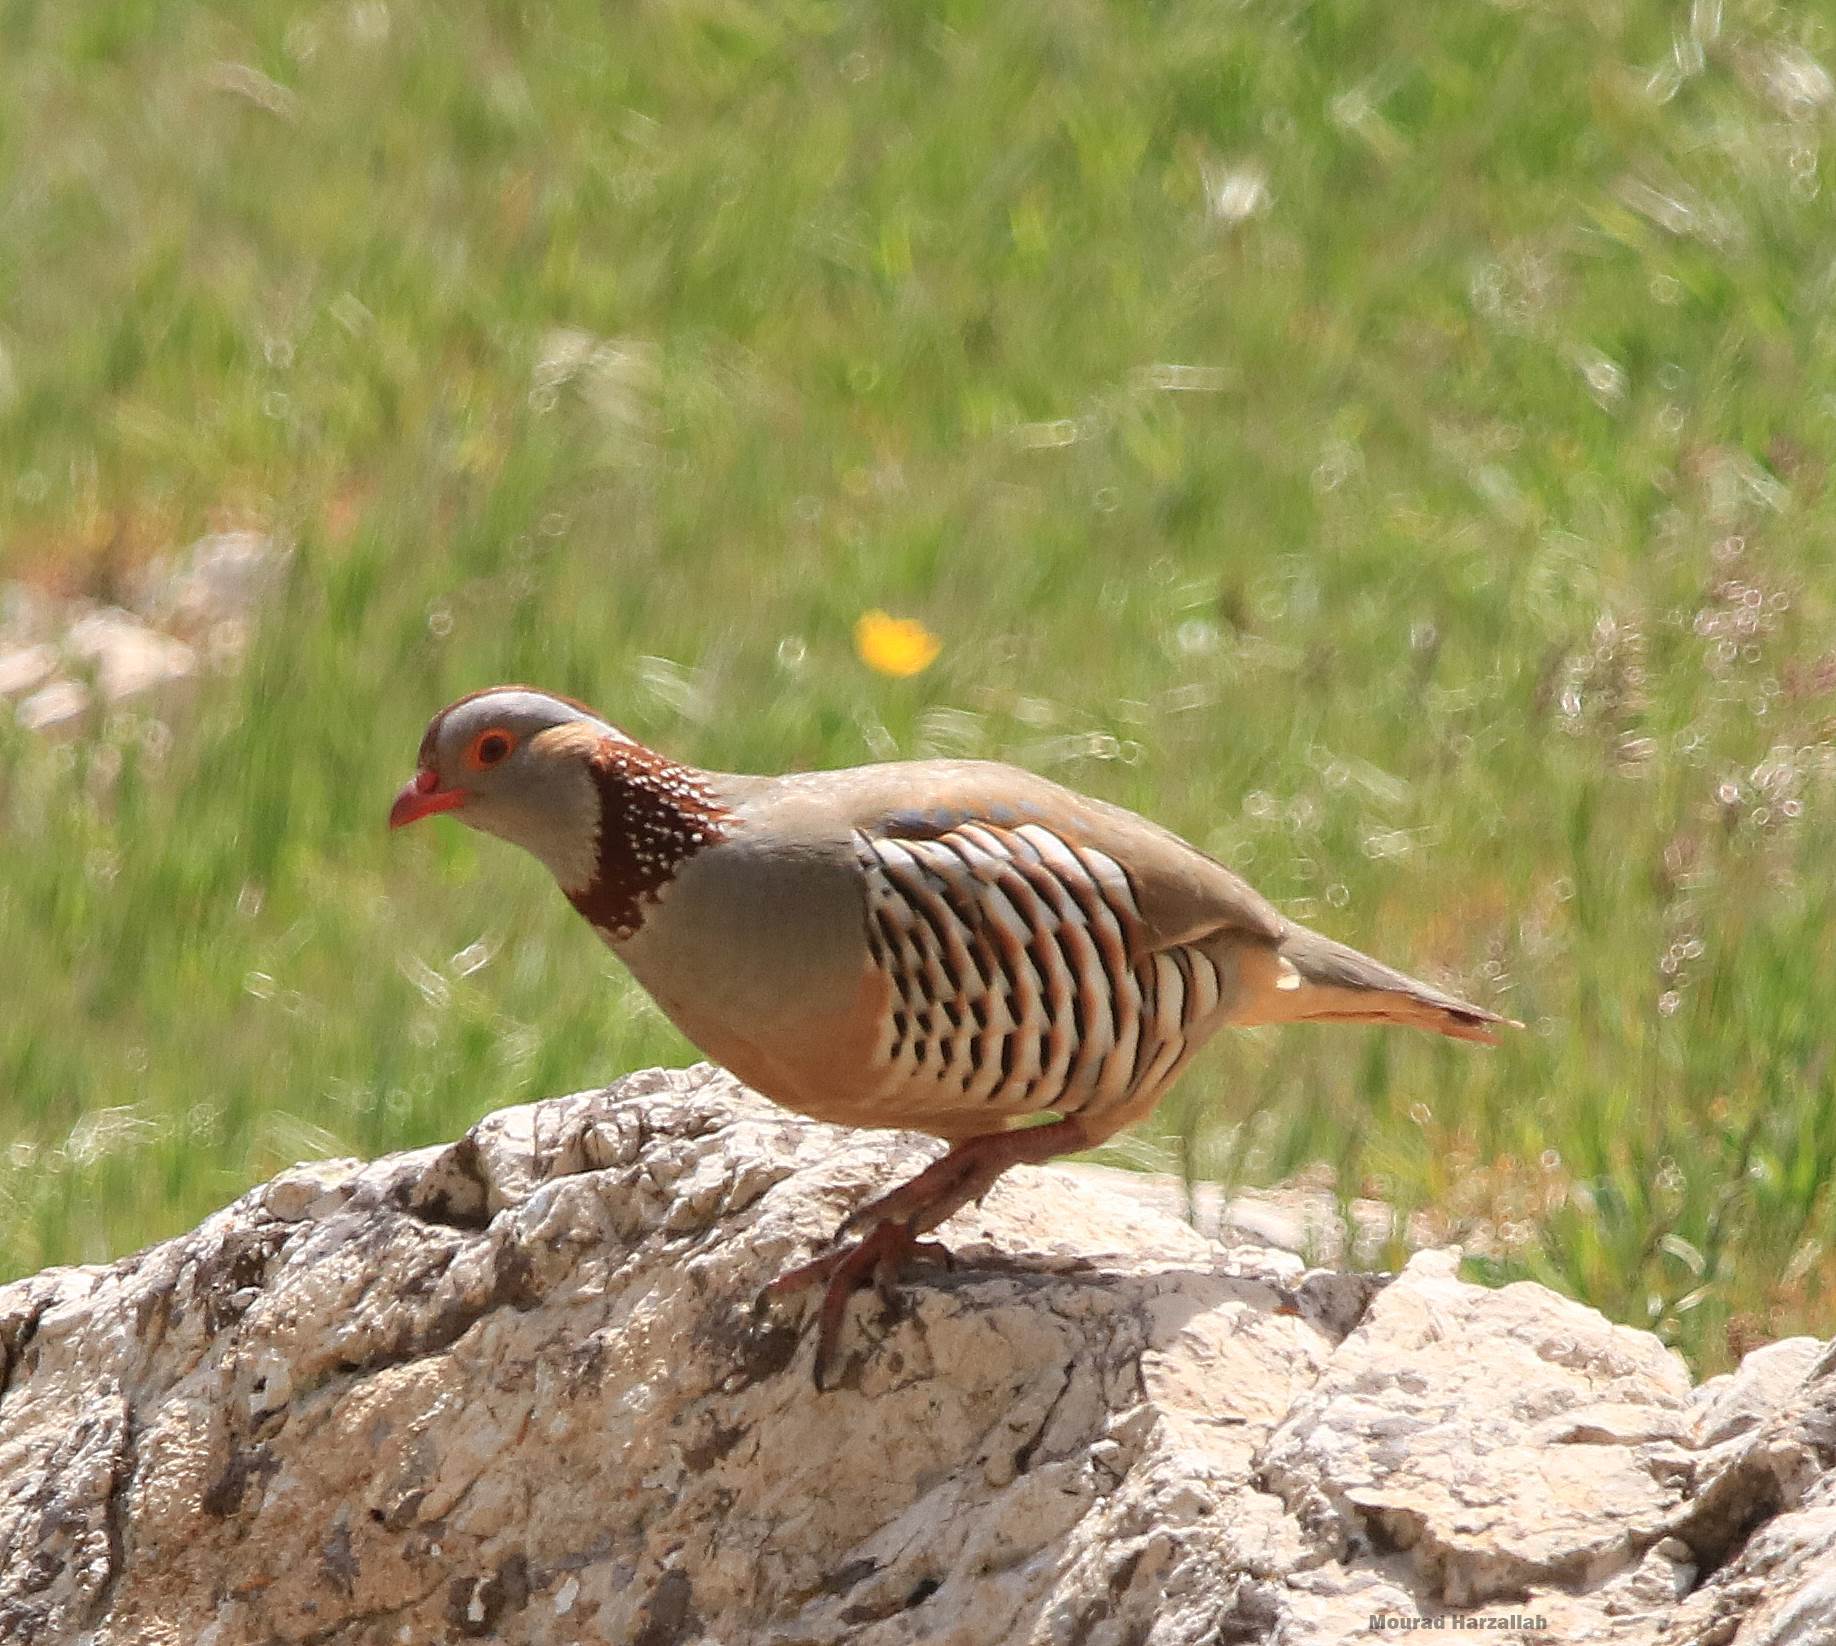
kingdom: Animalia
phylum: Chordata
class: Aves
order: Galliformes
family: Phasianidae
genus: Alectoris
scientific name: Alectoris barbara
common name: Barbary partridge
